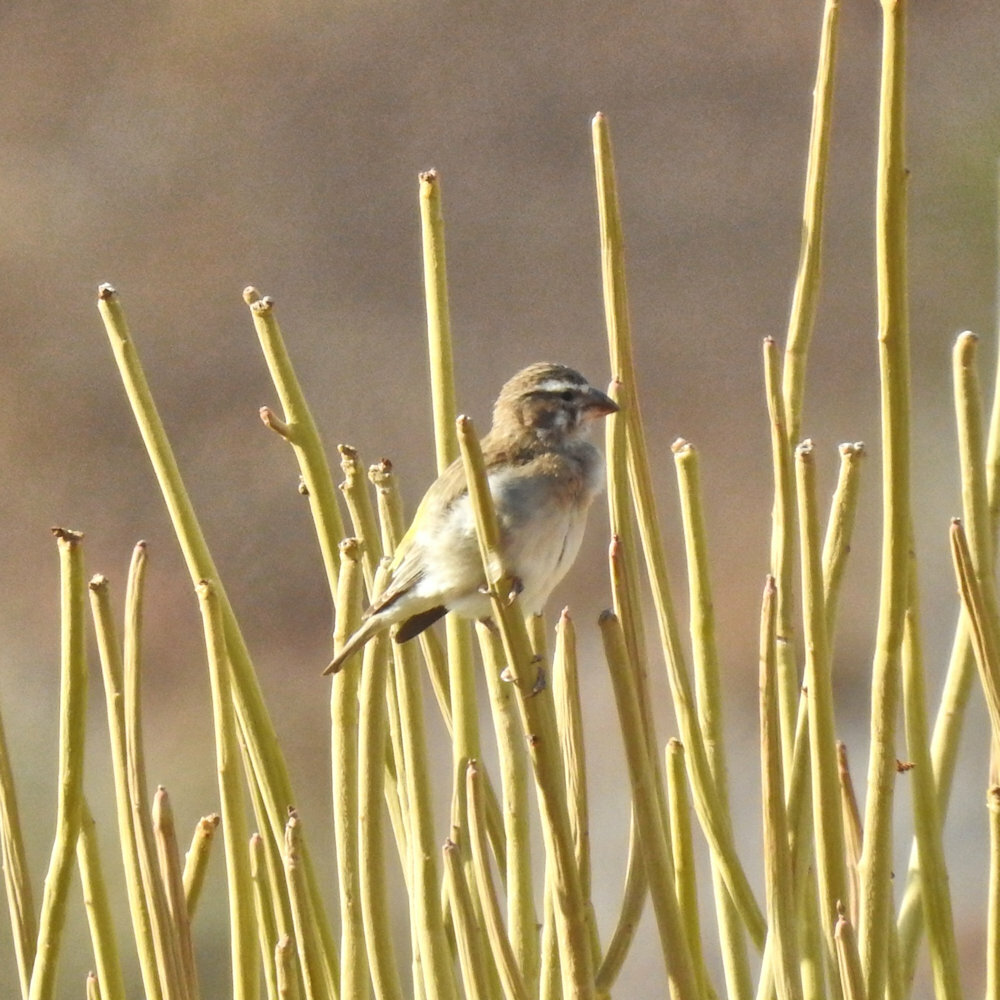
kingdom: Animalia
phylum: Chordata
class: Aves
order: Passeriformes
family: Fringillidae
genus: Crithagra
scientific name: Crithagra albogularis
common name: White-throated canary
